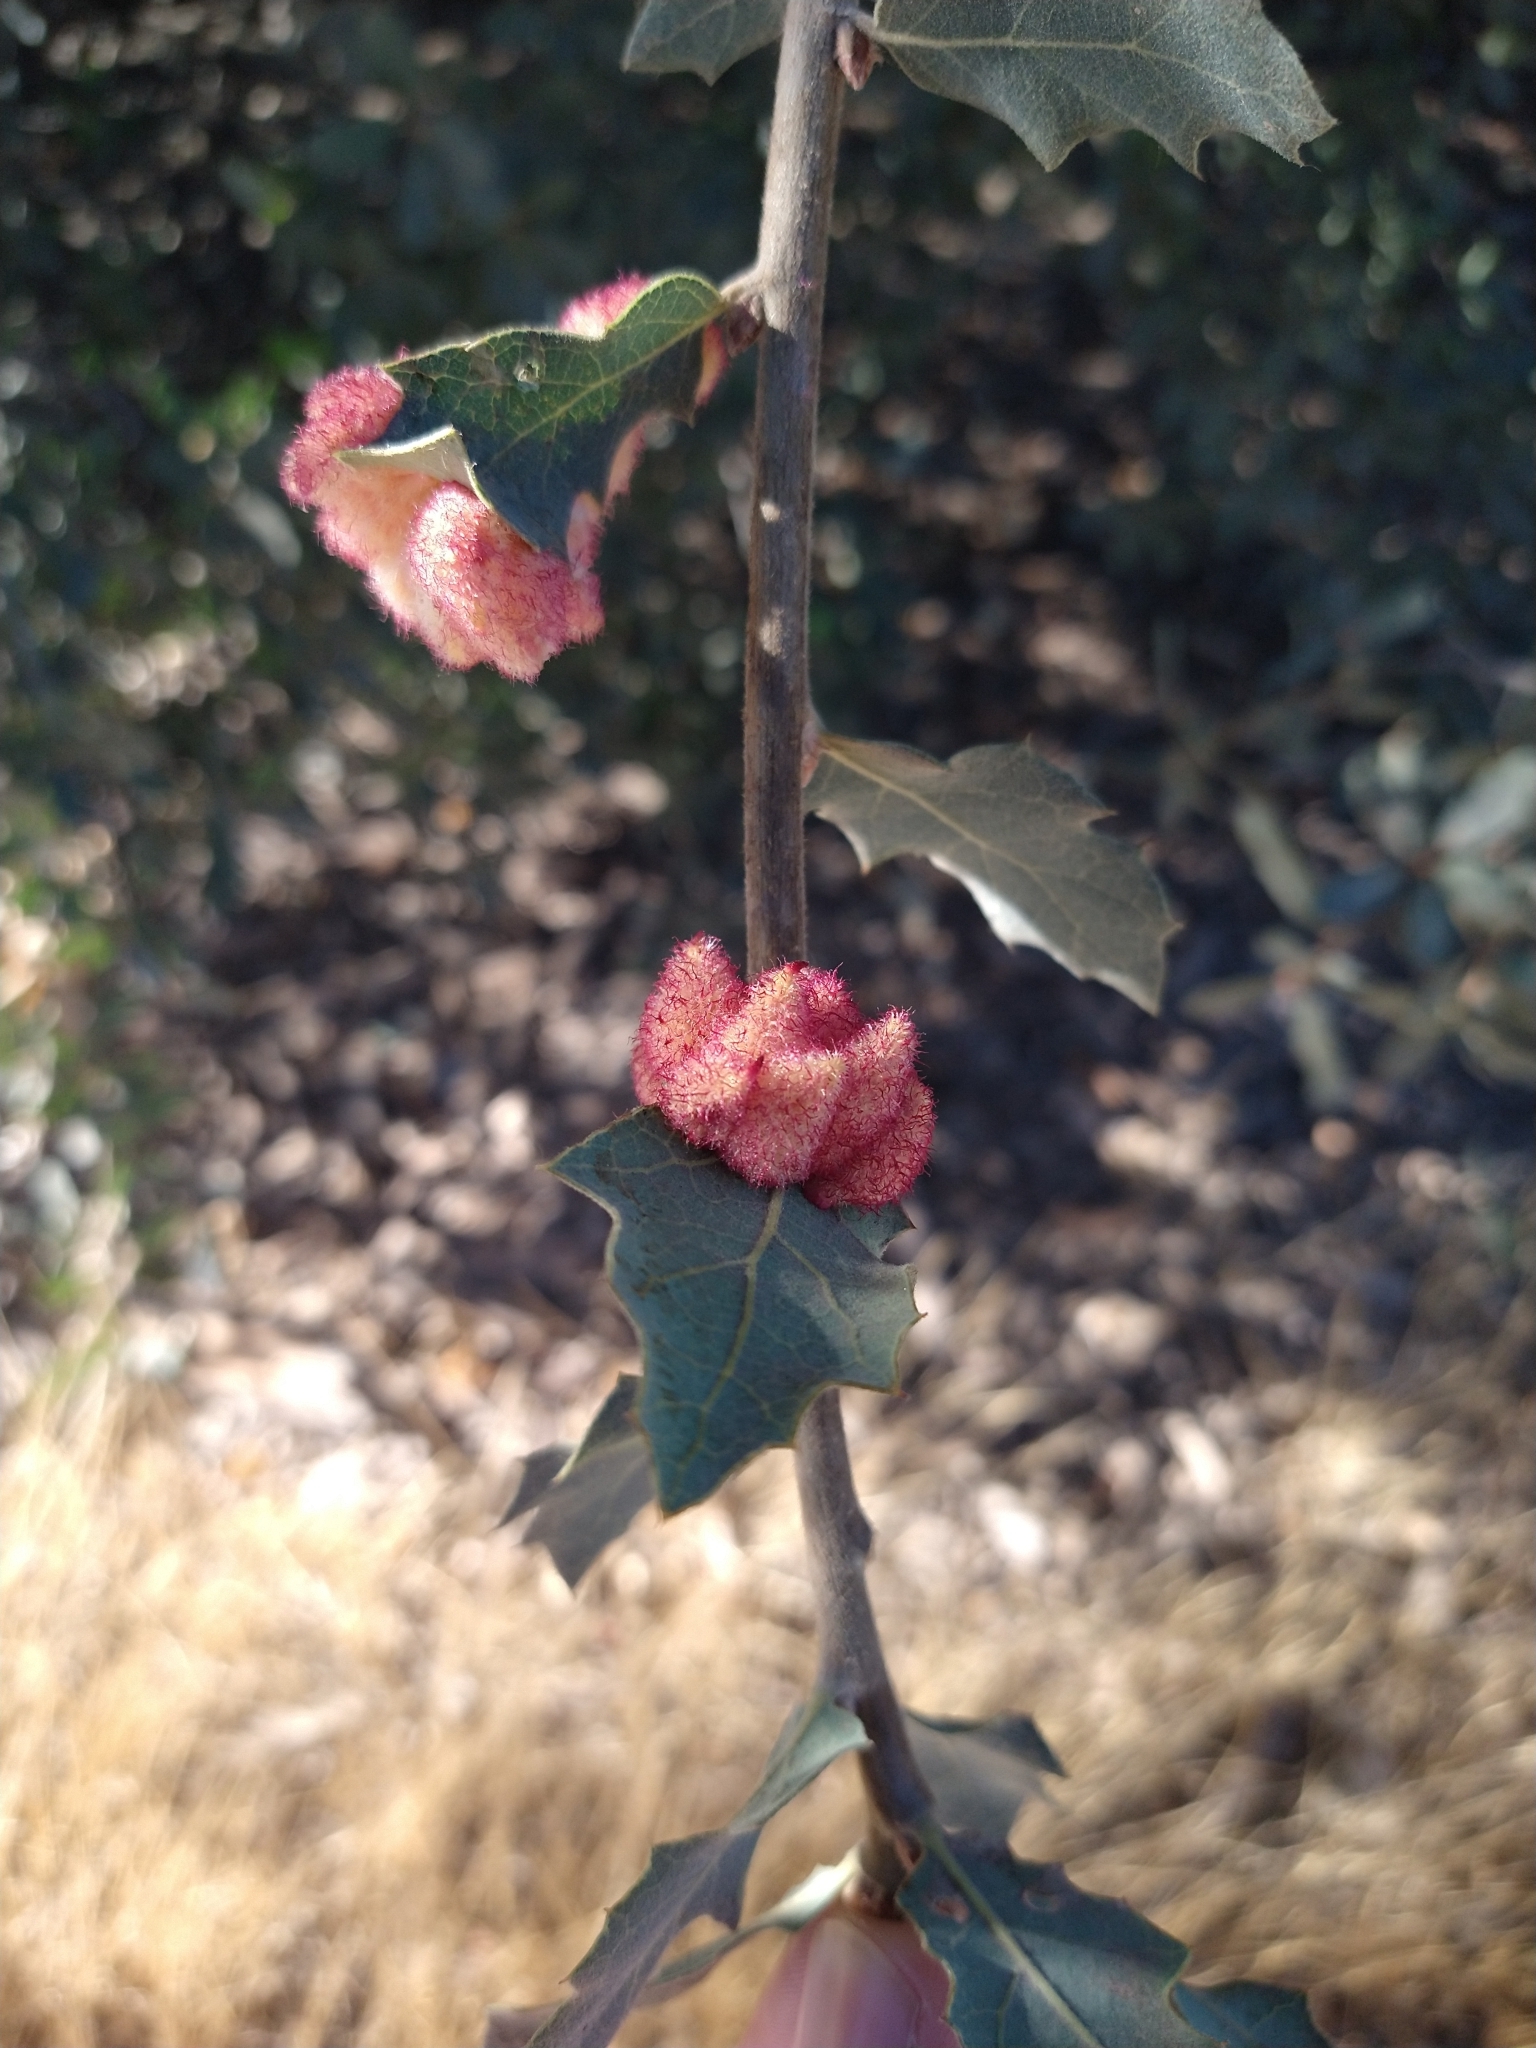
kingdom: Animalia
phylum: Arthropoda
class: Insecta
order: Hymenoptera
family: Cynipidae
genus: Andricus
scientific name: Andricus
